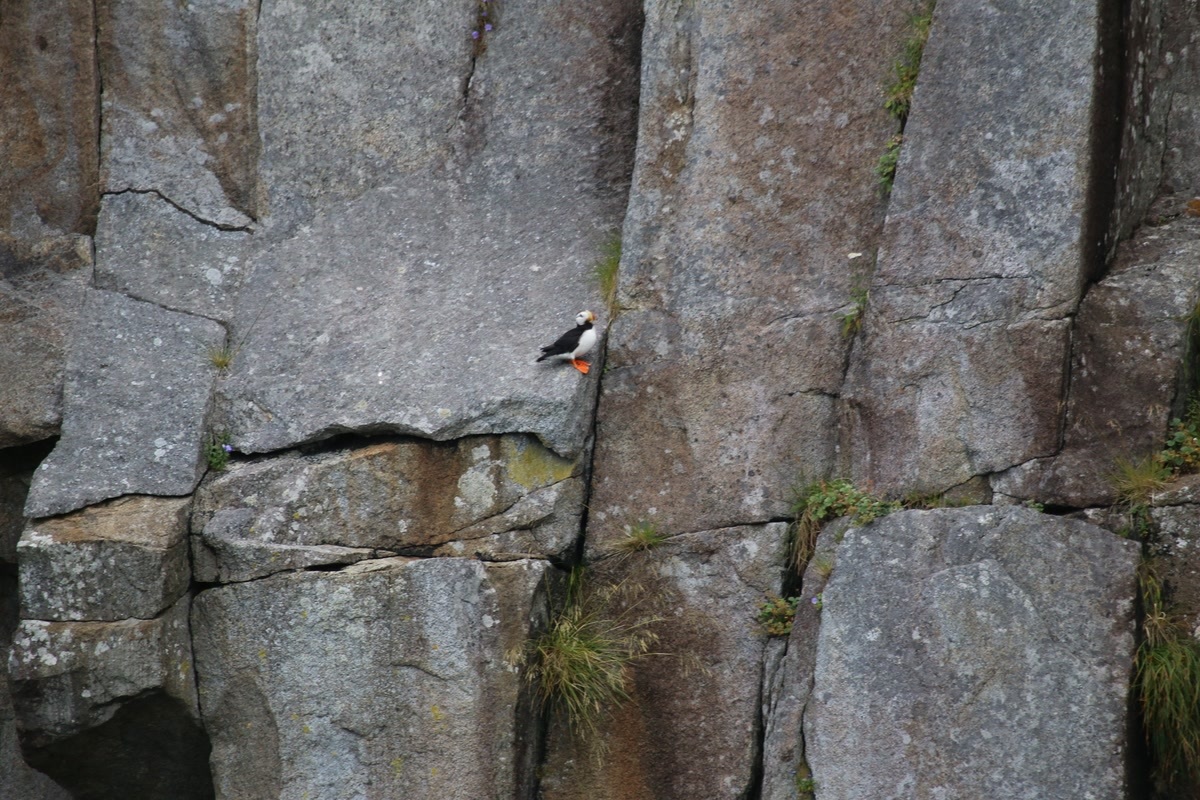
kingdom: Animalia
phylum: Chordata
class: Aves
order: Charadriiformes
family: Alcidae
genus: Fratercula
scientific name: Fratercula corniculata
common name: Horned puffin
